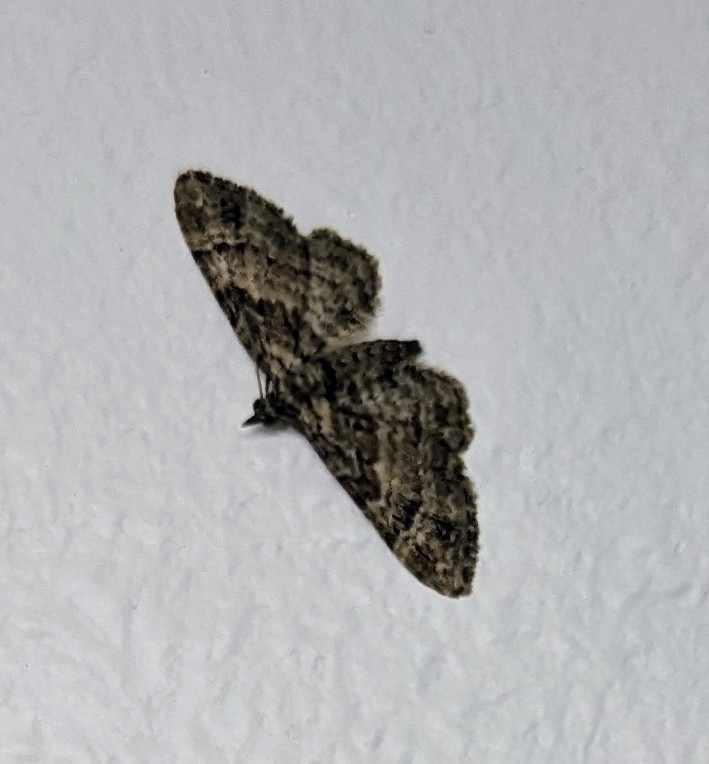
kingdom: Animalia
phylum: Arthropoda
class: Insecta
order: Lepidoptera
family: Geometridae
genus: Gymnoscelis
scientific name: Gymnoscelis rufifasciata
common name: Double-striped pug
